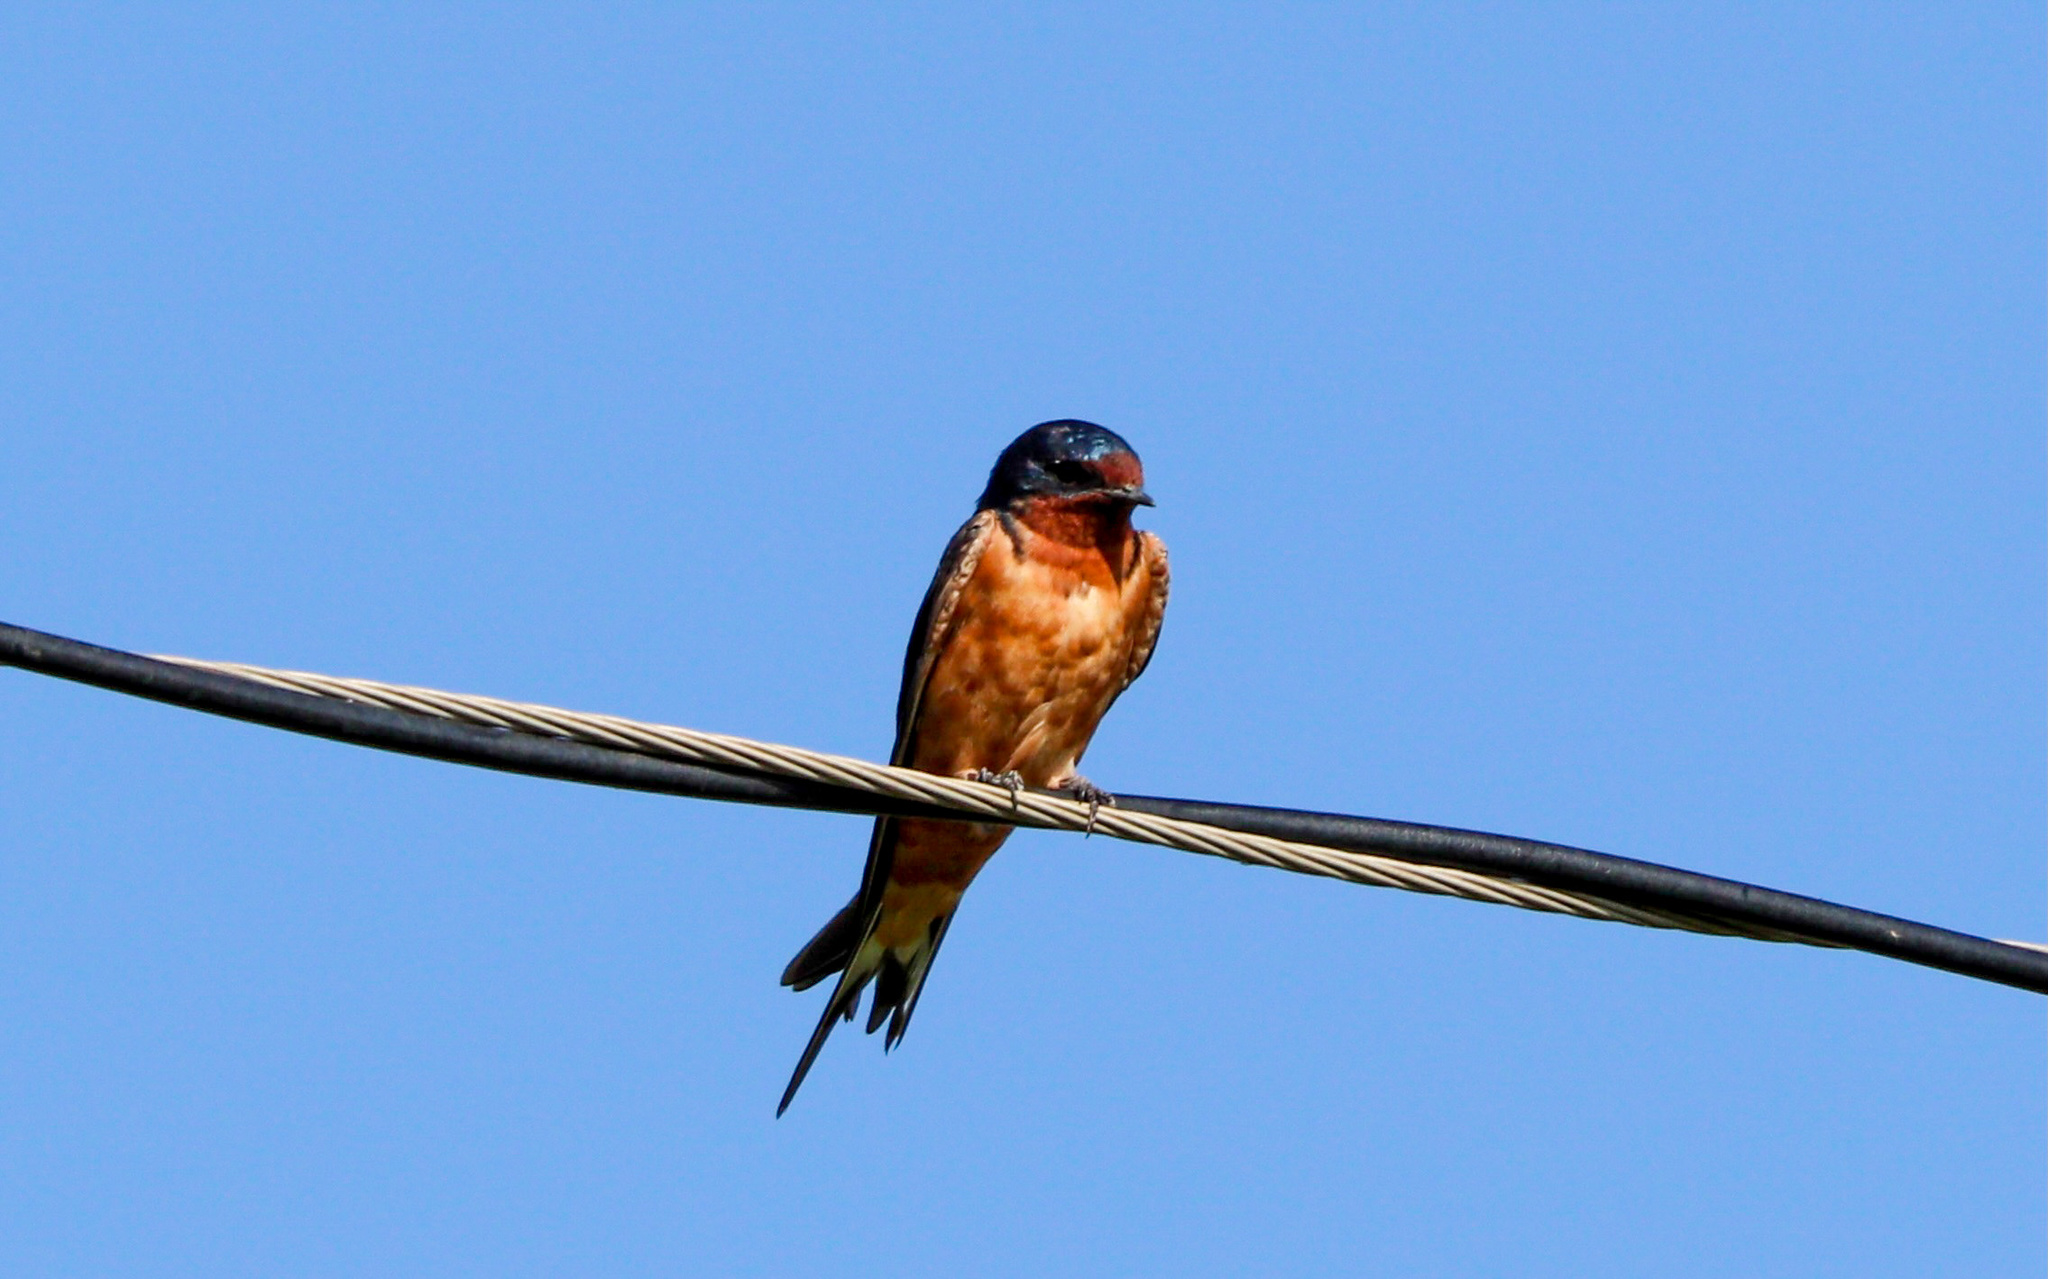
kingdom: Animalia
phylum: Chordata
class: Aves
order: Passeriformes
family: Hirundinidae
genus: Hirundo
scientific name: Hirundo rustica
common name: Barn swallow
